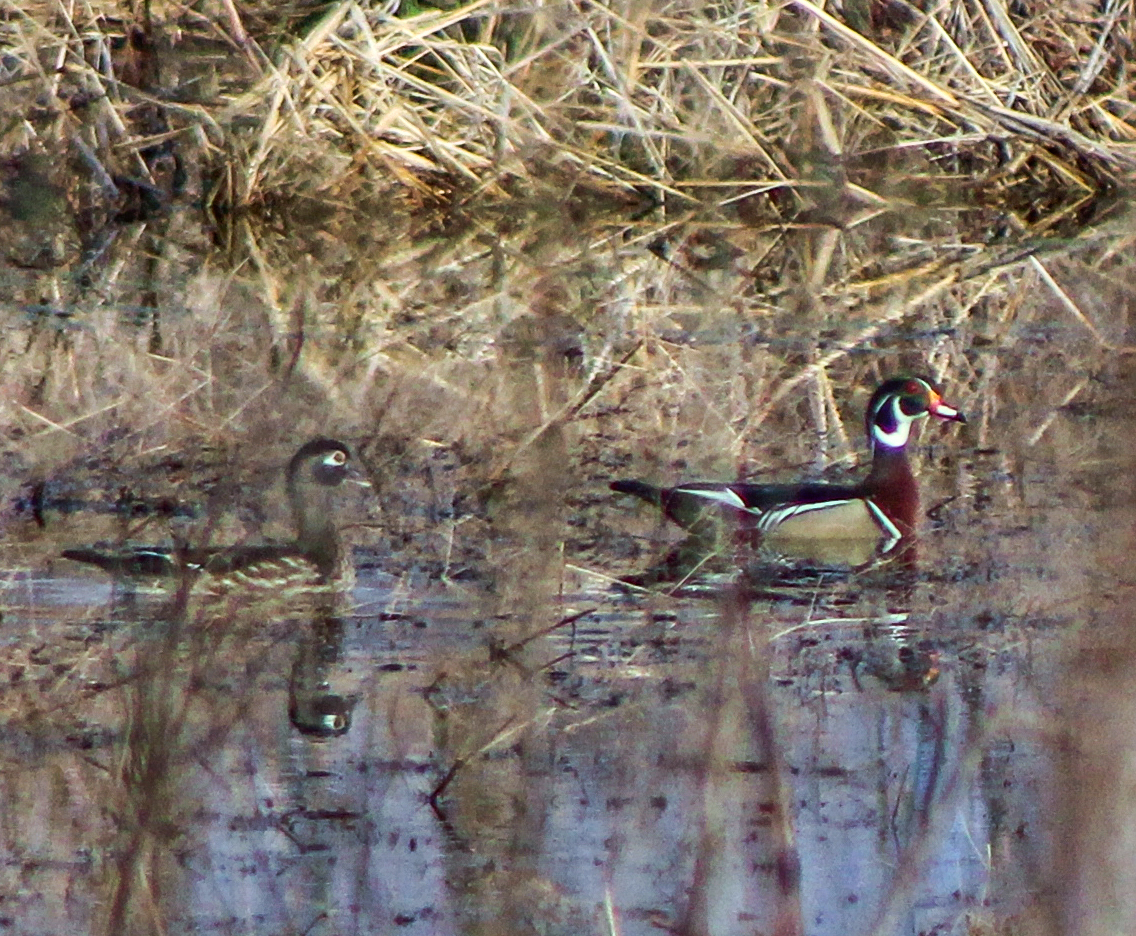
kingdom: Animalia
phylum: Chordata
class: Aves
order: Anseriformes
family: Anatidae
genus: Aix
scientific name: Aix sponsa
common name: Wood duck
